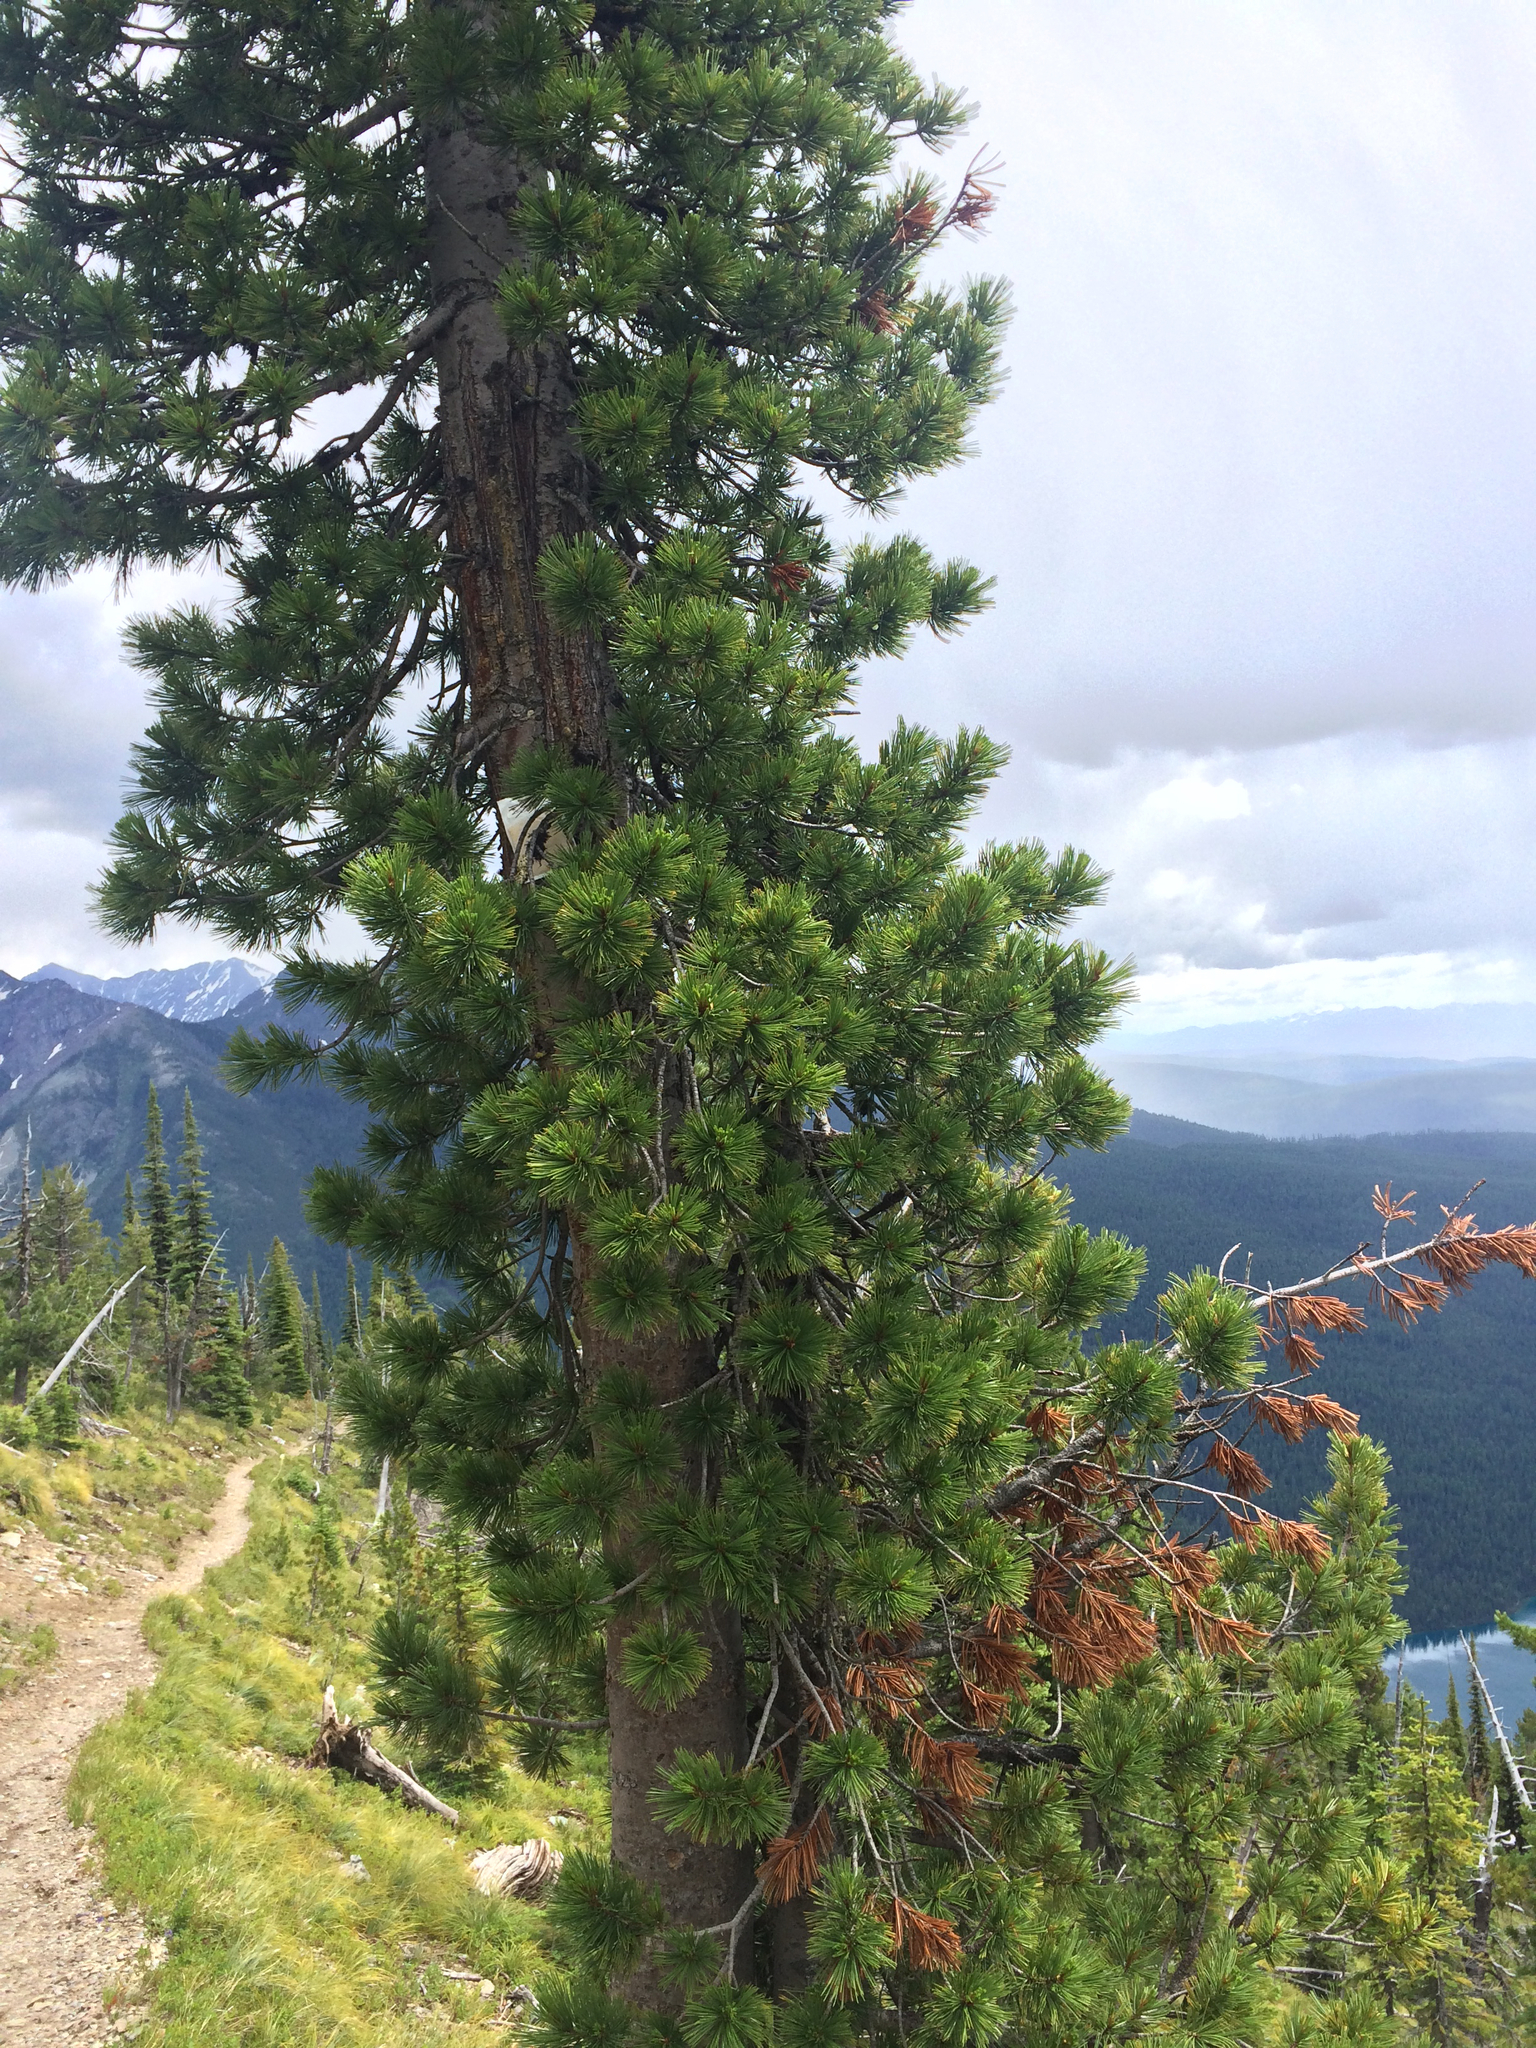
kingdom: Plantae
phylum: Tracheophyta
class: Pinopsida
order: Pinales
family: Pinaceae
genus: Pinus
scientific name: Pinus albicaulis
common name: Whitebark pine
